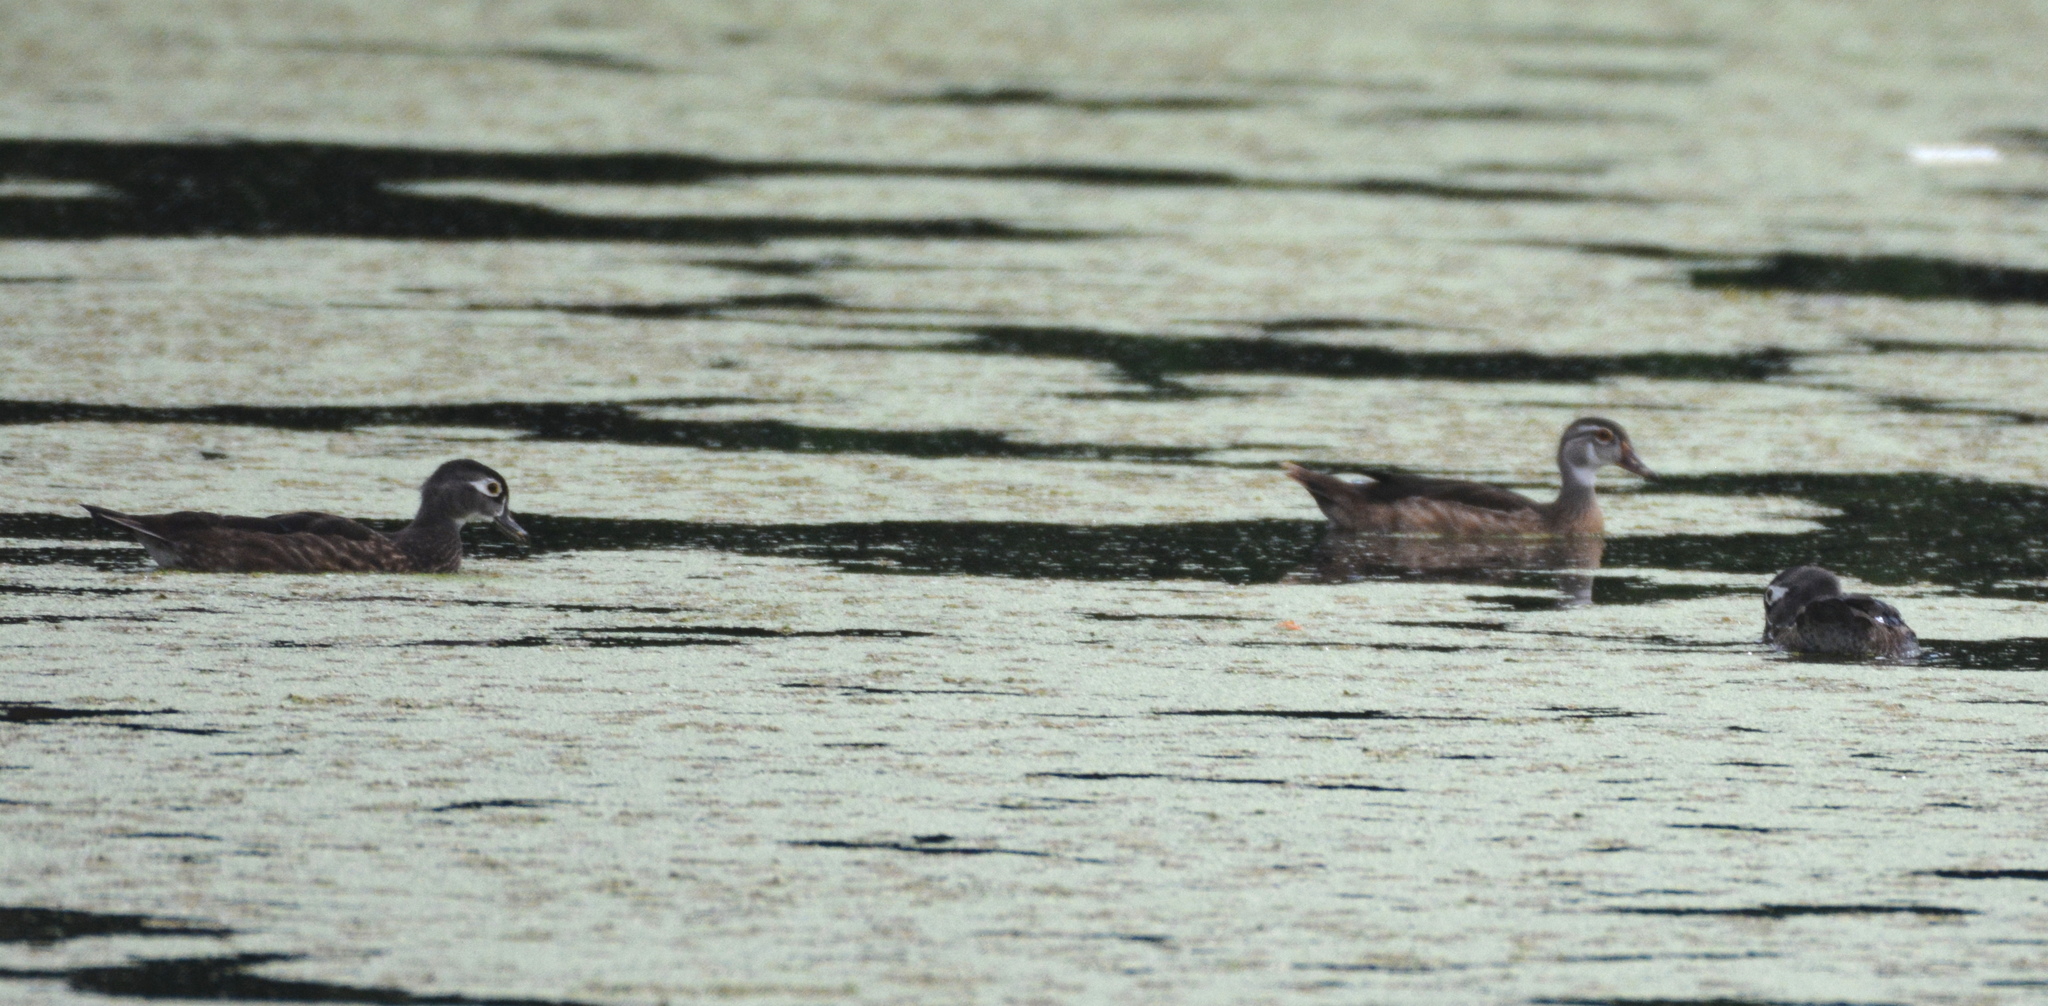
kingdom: Animalia
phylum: Chordata
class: Aves
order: Anseriformes
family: Anatidae
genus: Aix
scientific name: Aix sponsa
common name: Wood duck
